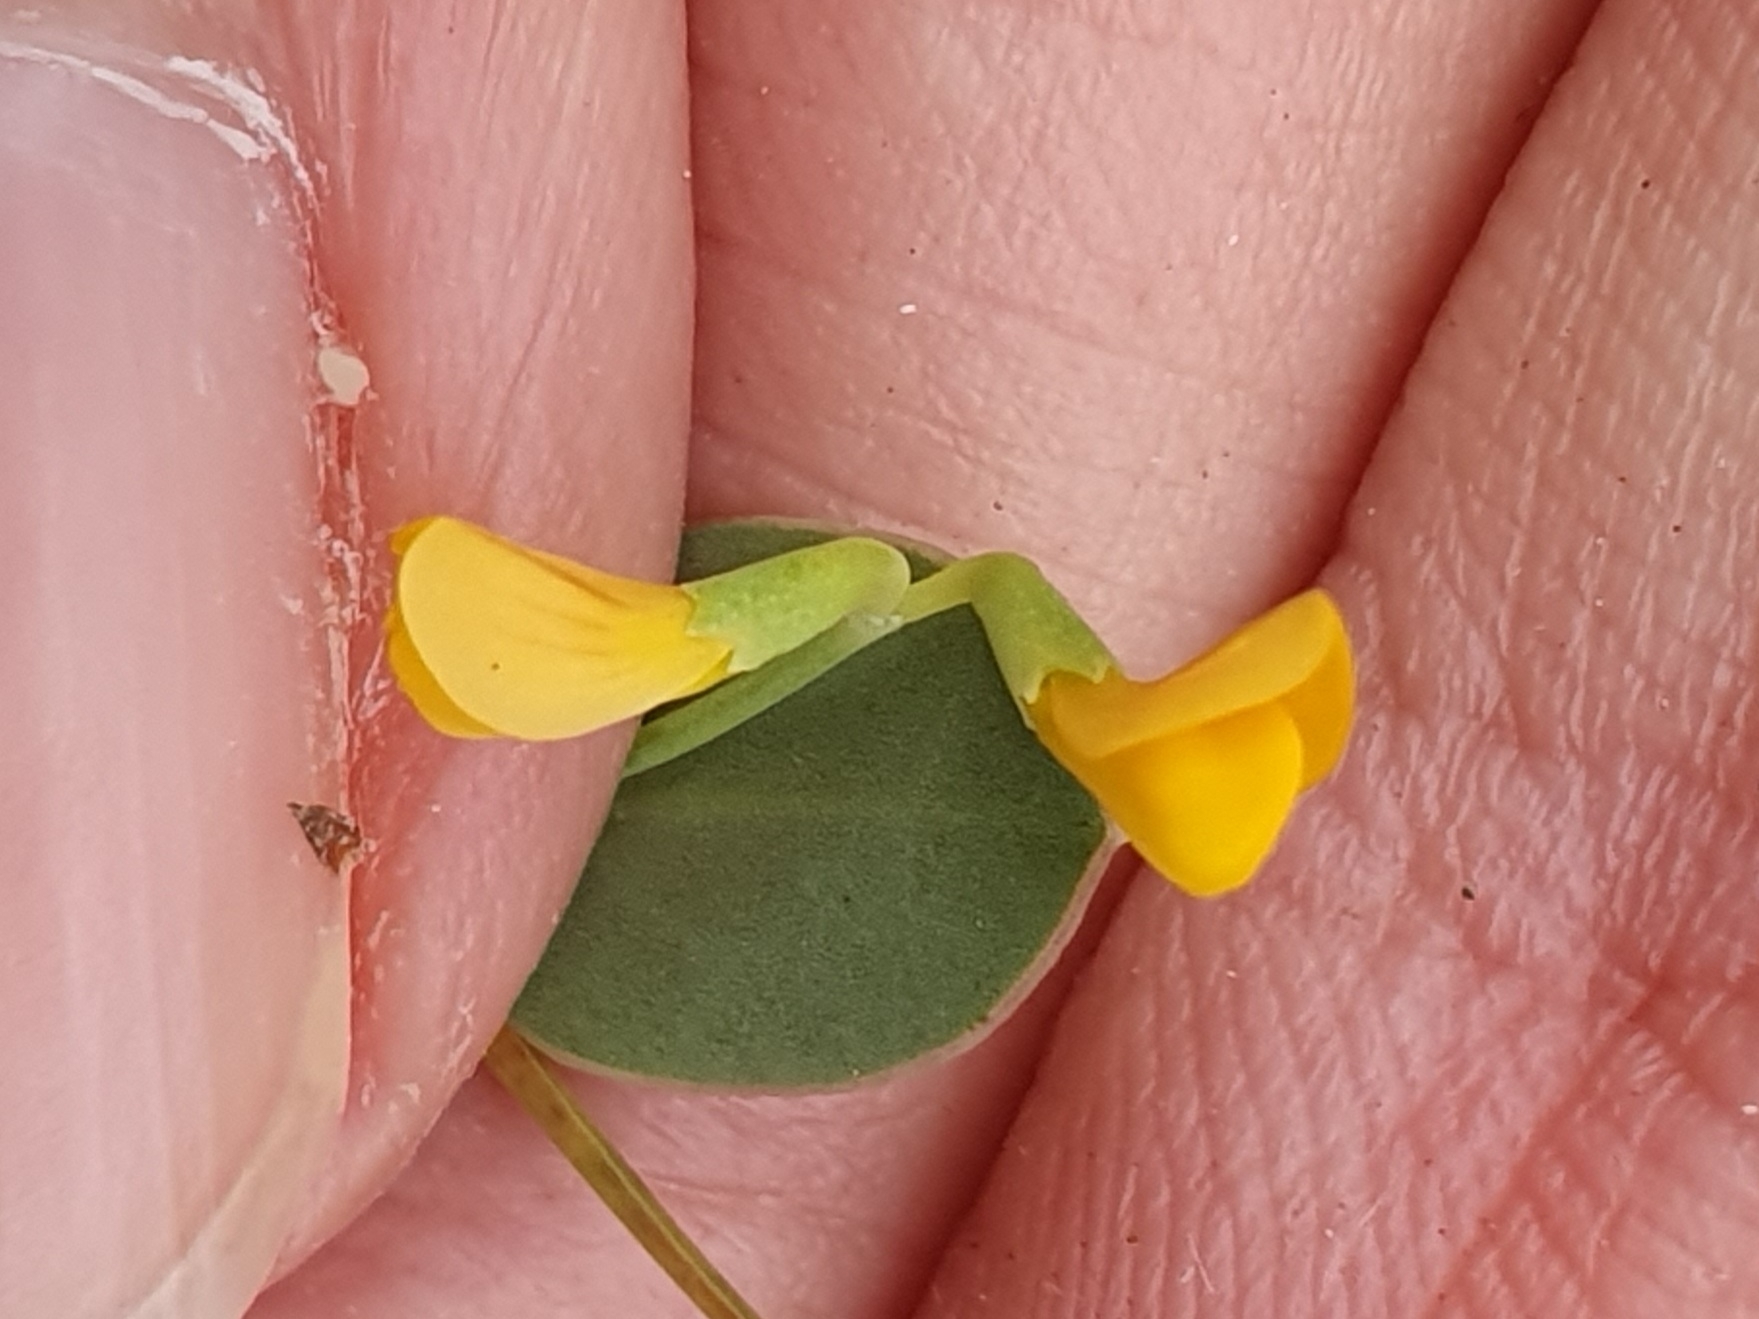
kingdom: Plantae
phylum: Tracheophyta
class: Magnoliopsida
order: Fabales
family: Fabaceae
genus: Coronilla
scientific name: Coronilla scorpioides
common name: Annual scorpion-vetch
